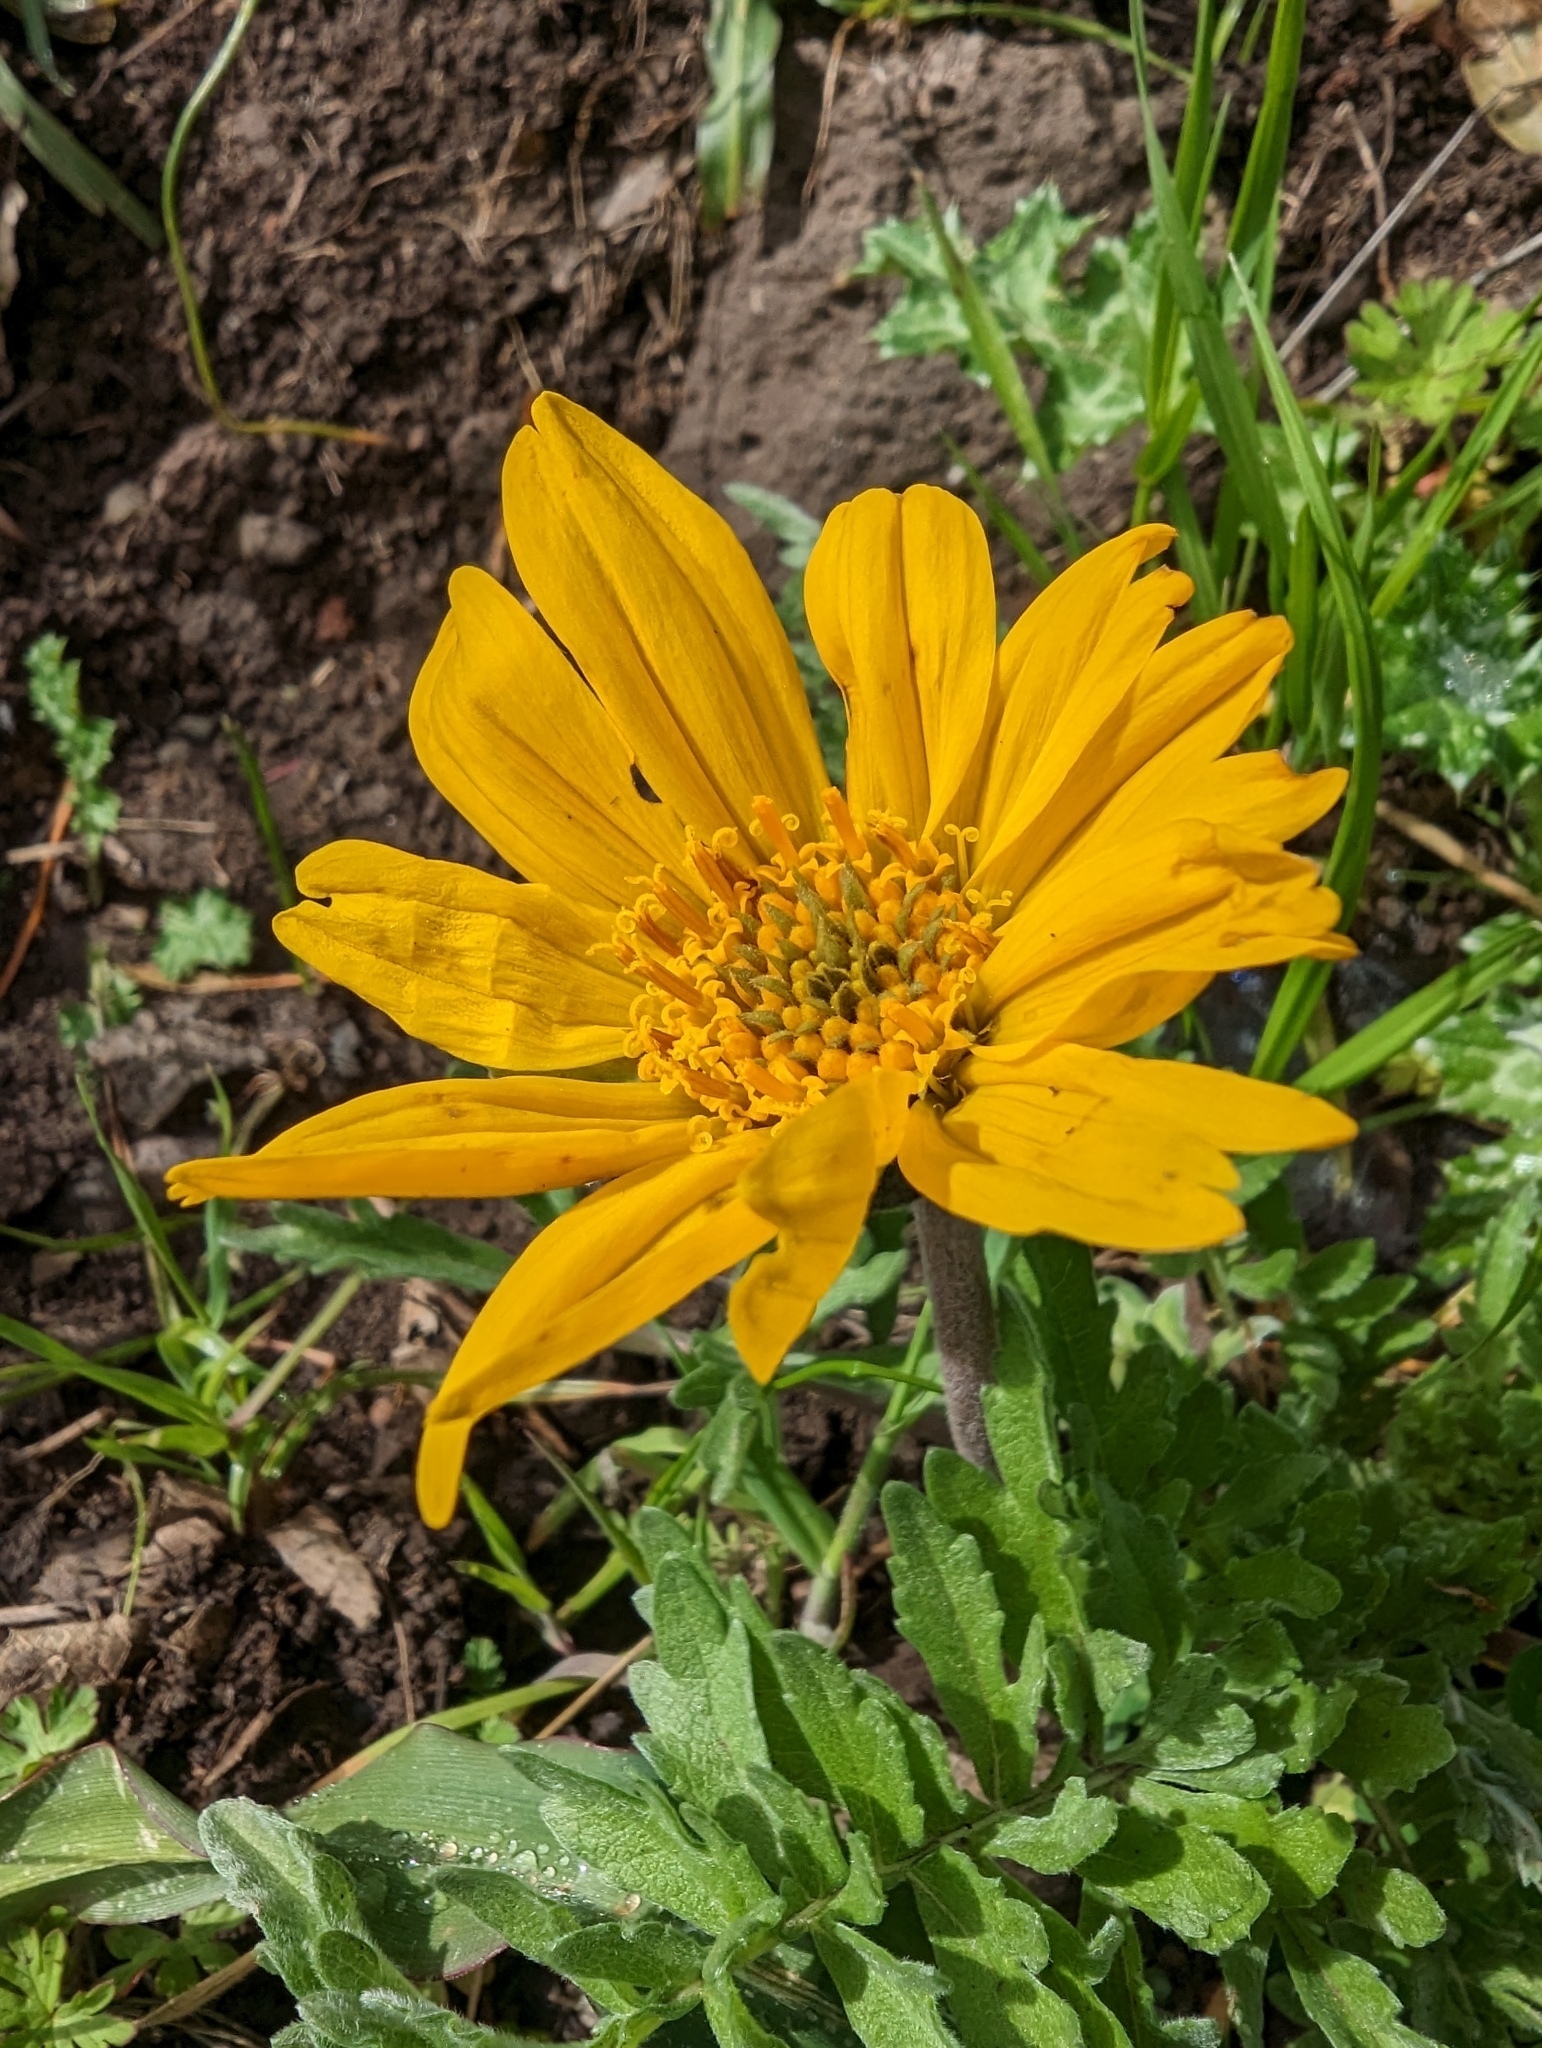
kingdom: Plantae
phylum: Tracheophyta
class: Magnoliopsida
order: Asterales
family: Asteraceae
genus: Balsamorhiza
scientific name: Balsamorhiza macrolepis
